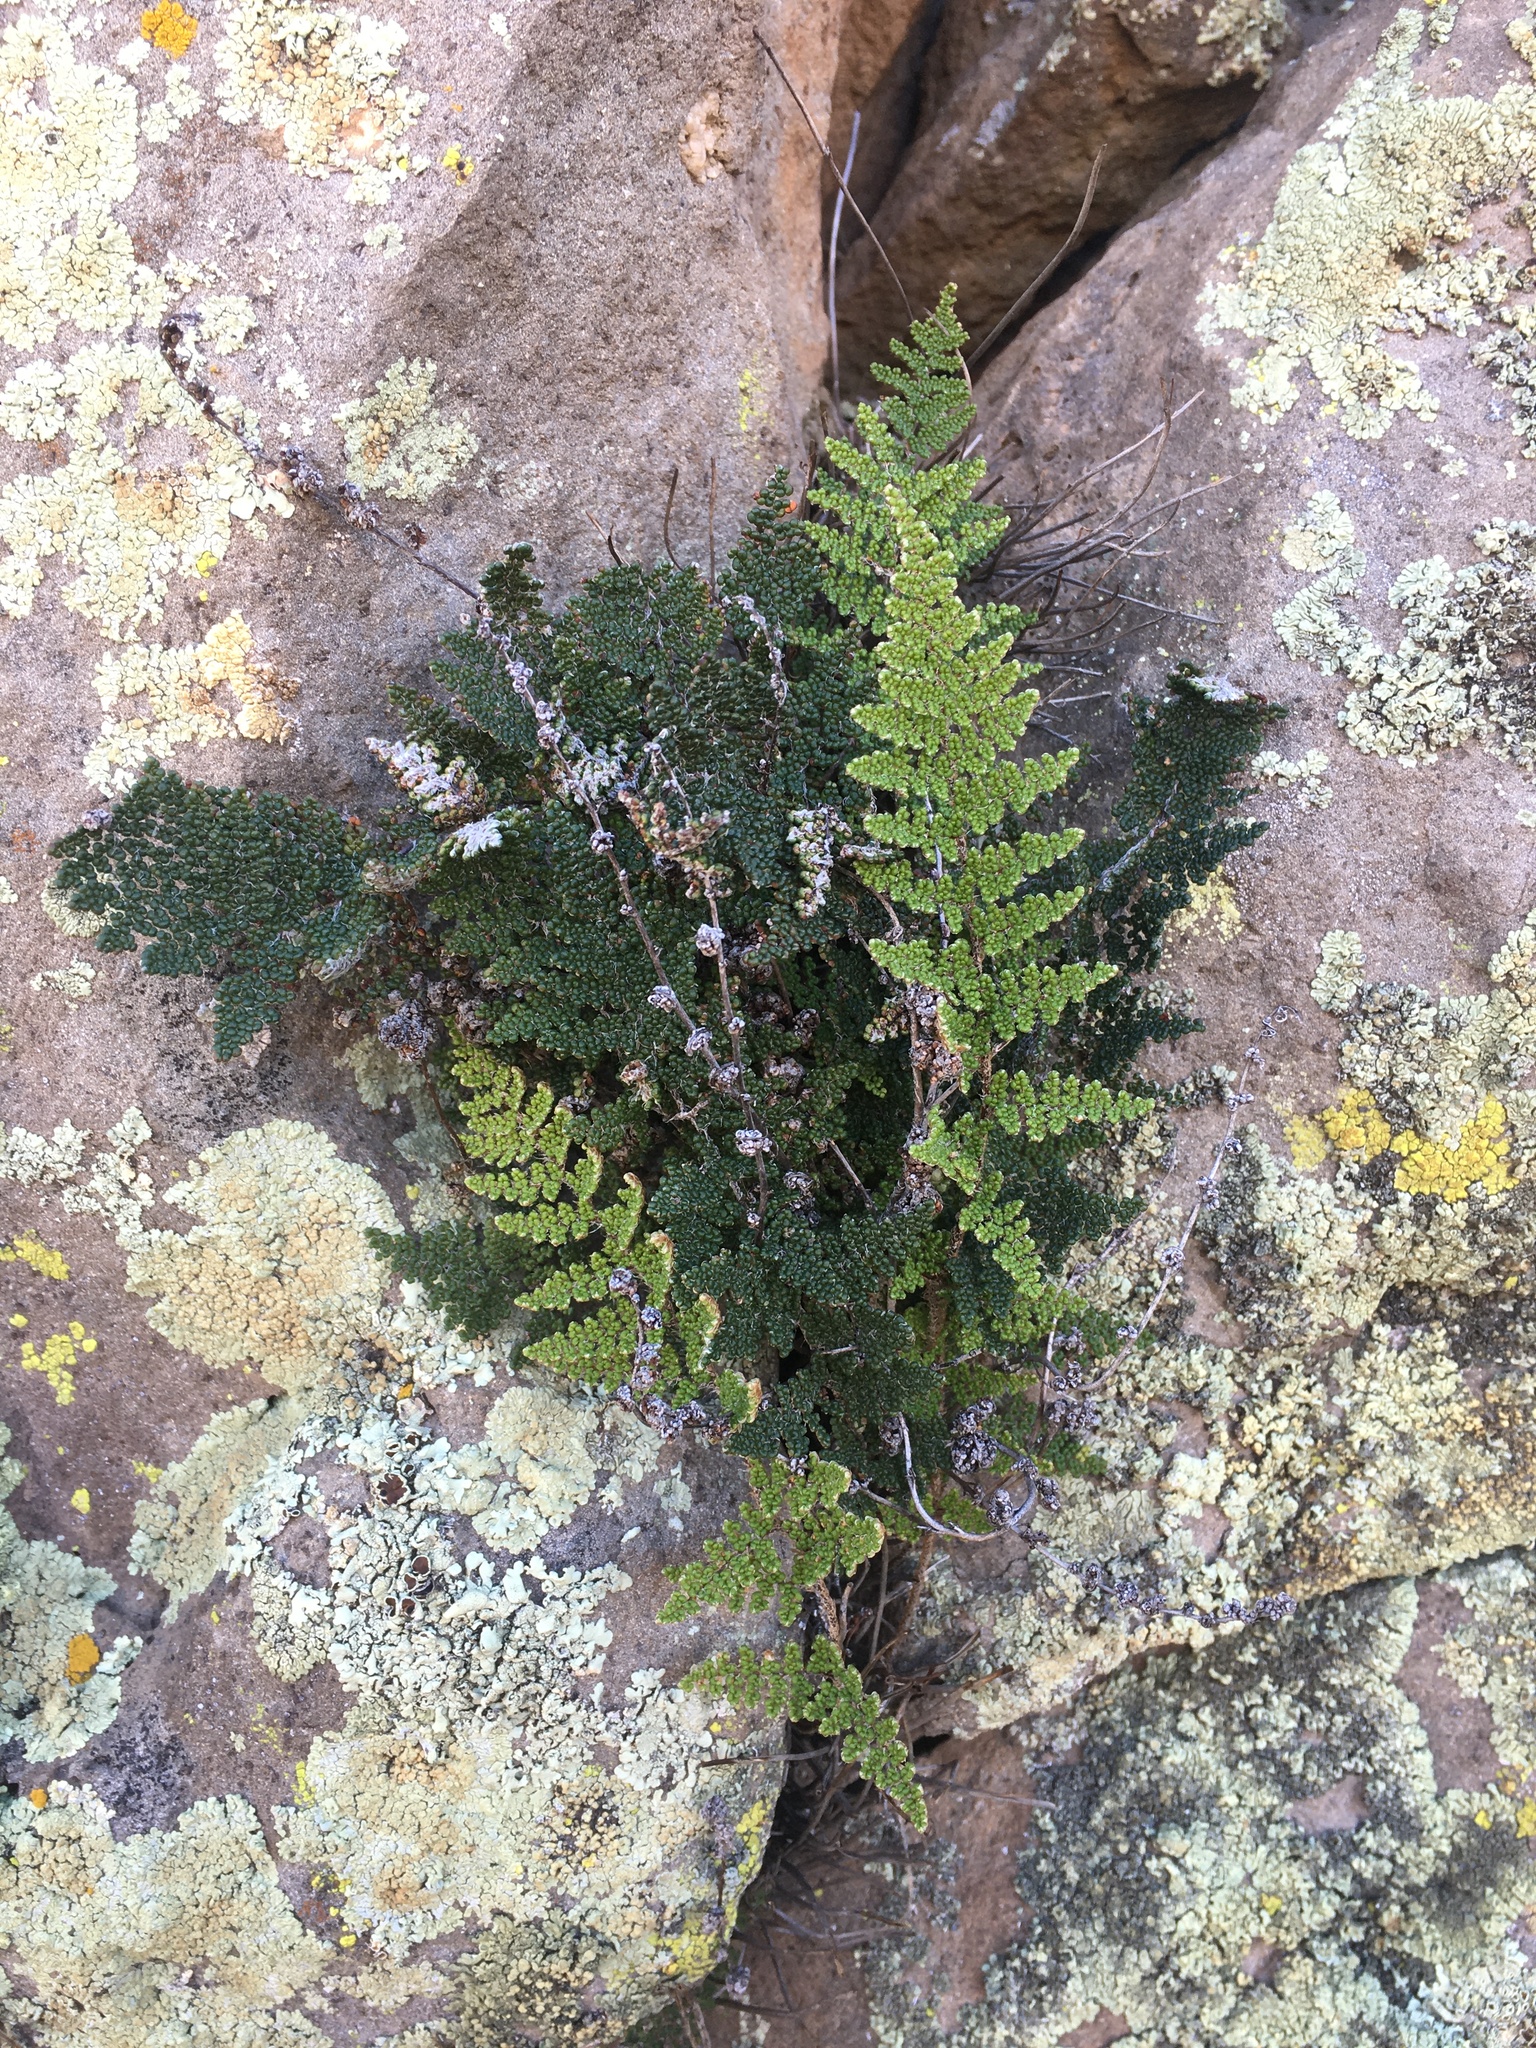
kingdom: Plantae
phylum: Tracheophyta
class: Polypodiopsida
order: Polypodiales
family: Pteridaceae
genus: Myriopteris
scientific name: Myriopteris covillei
